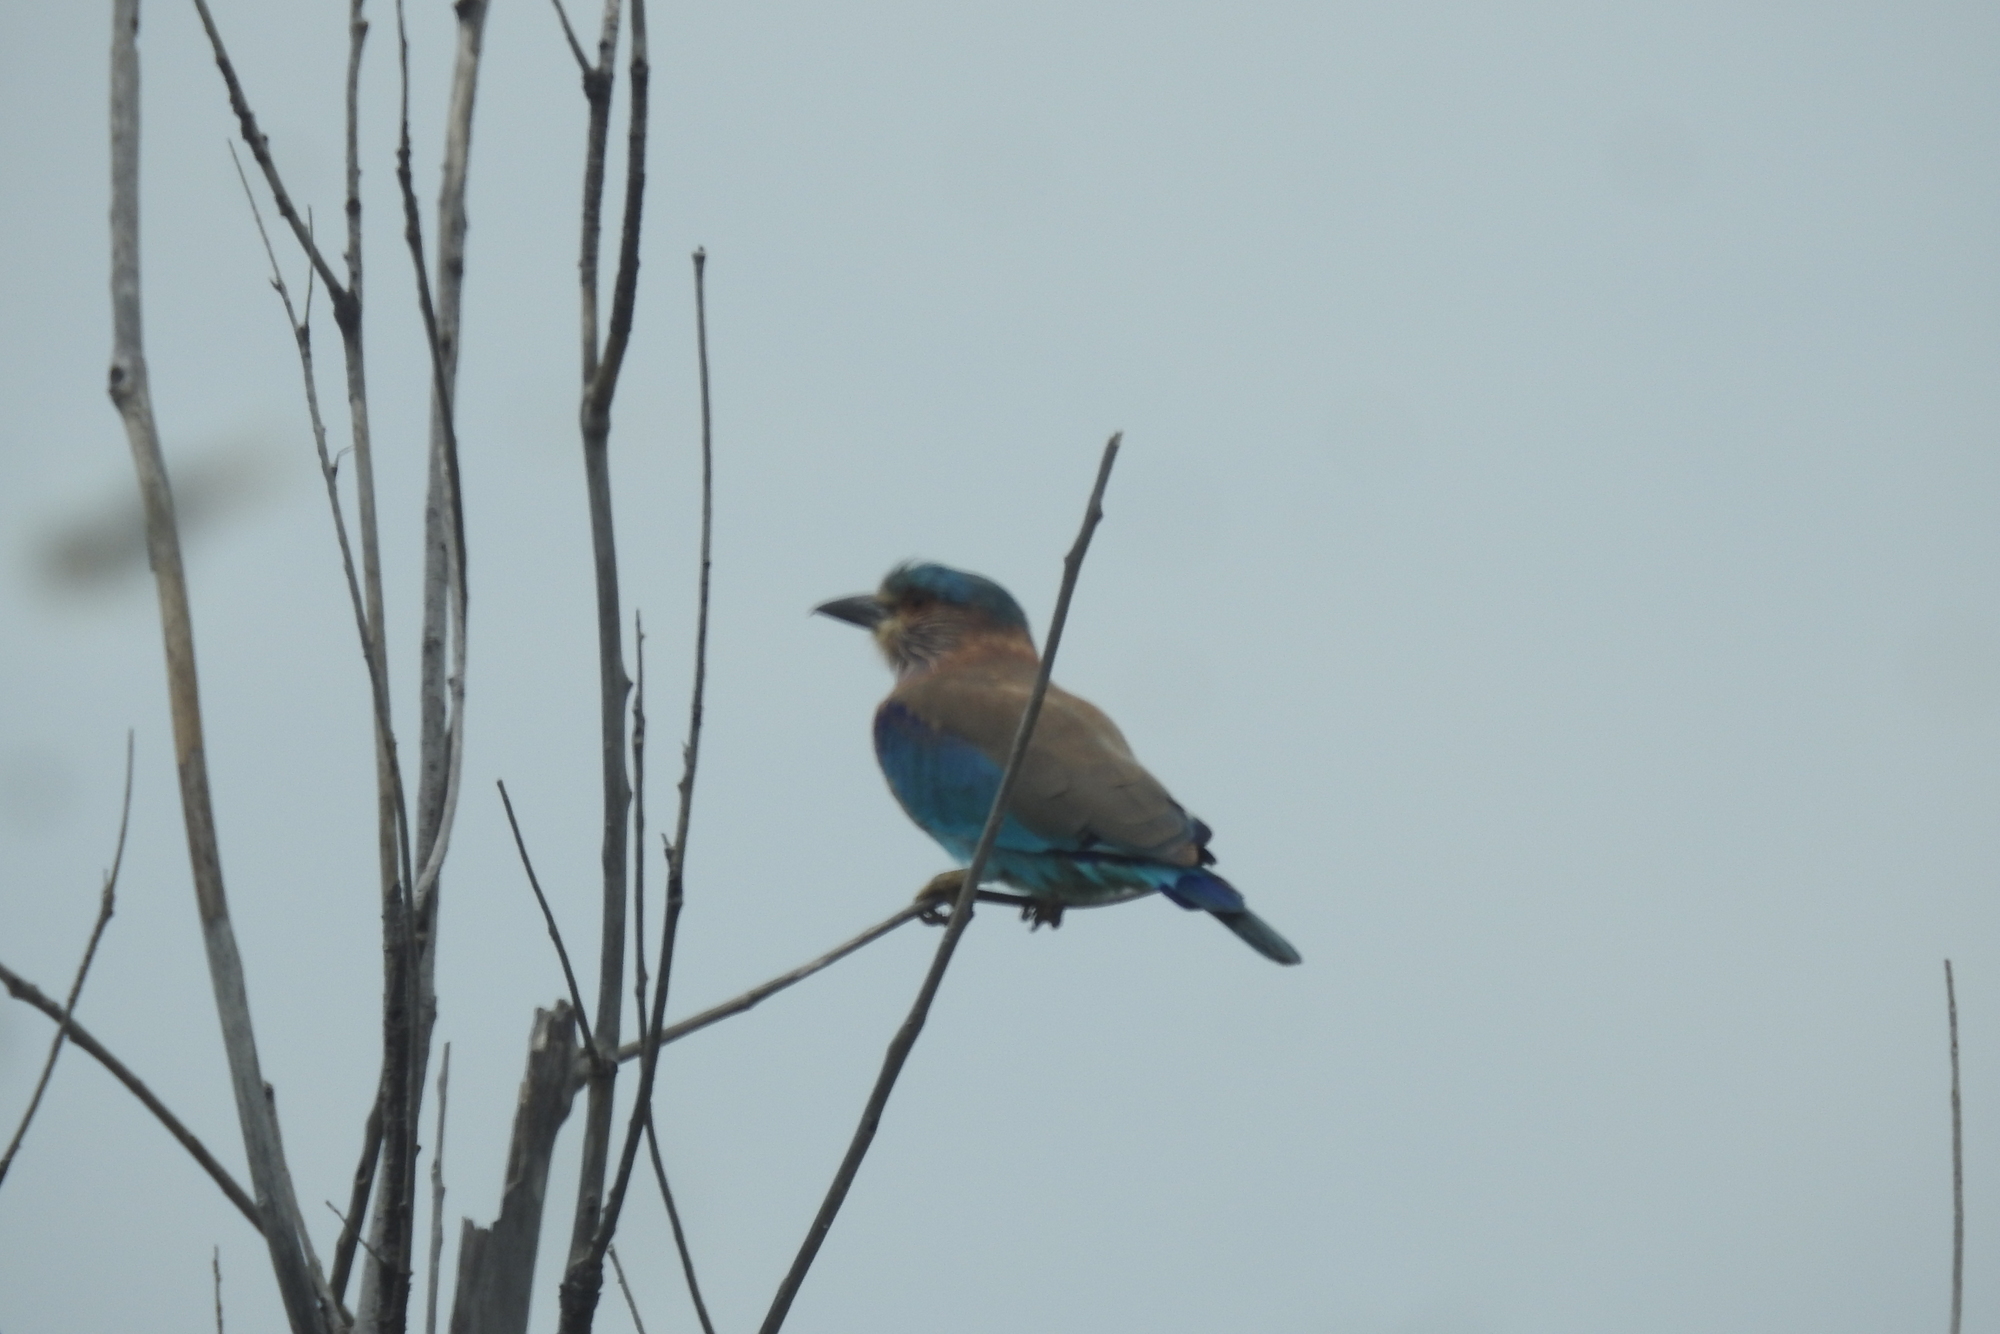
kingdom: Animalia
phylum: Chordata
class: Aves
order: Coraciiformes
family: Coraciidae
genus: Coracias
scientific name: Coracias benghalensis
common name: Indian roller
